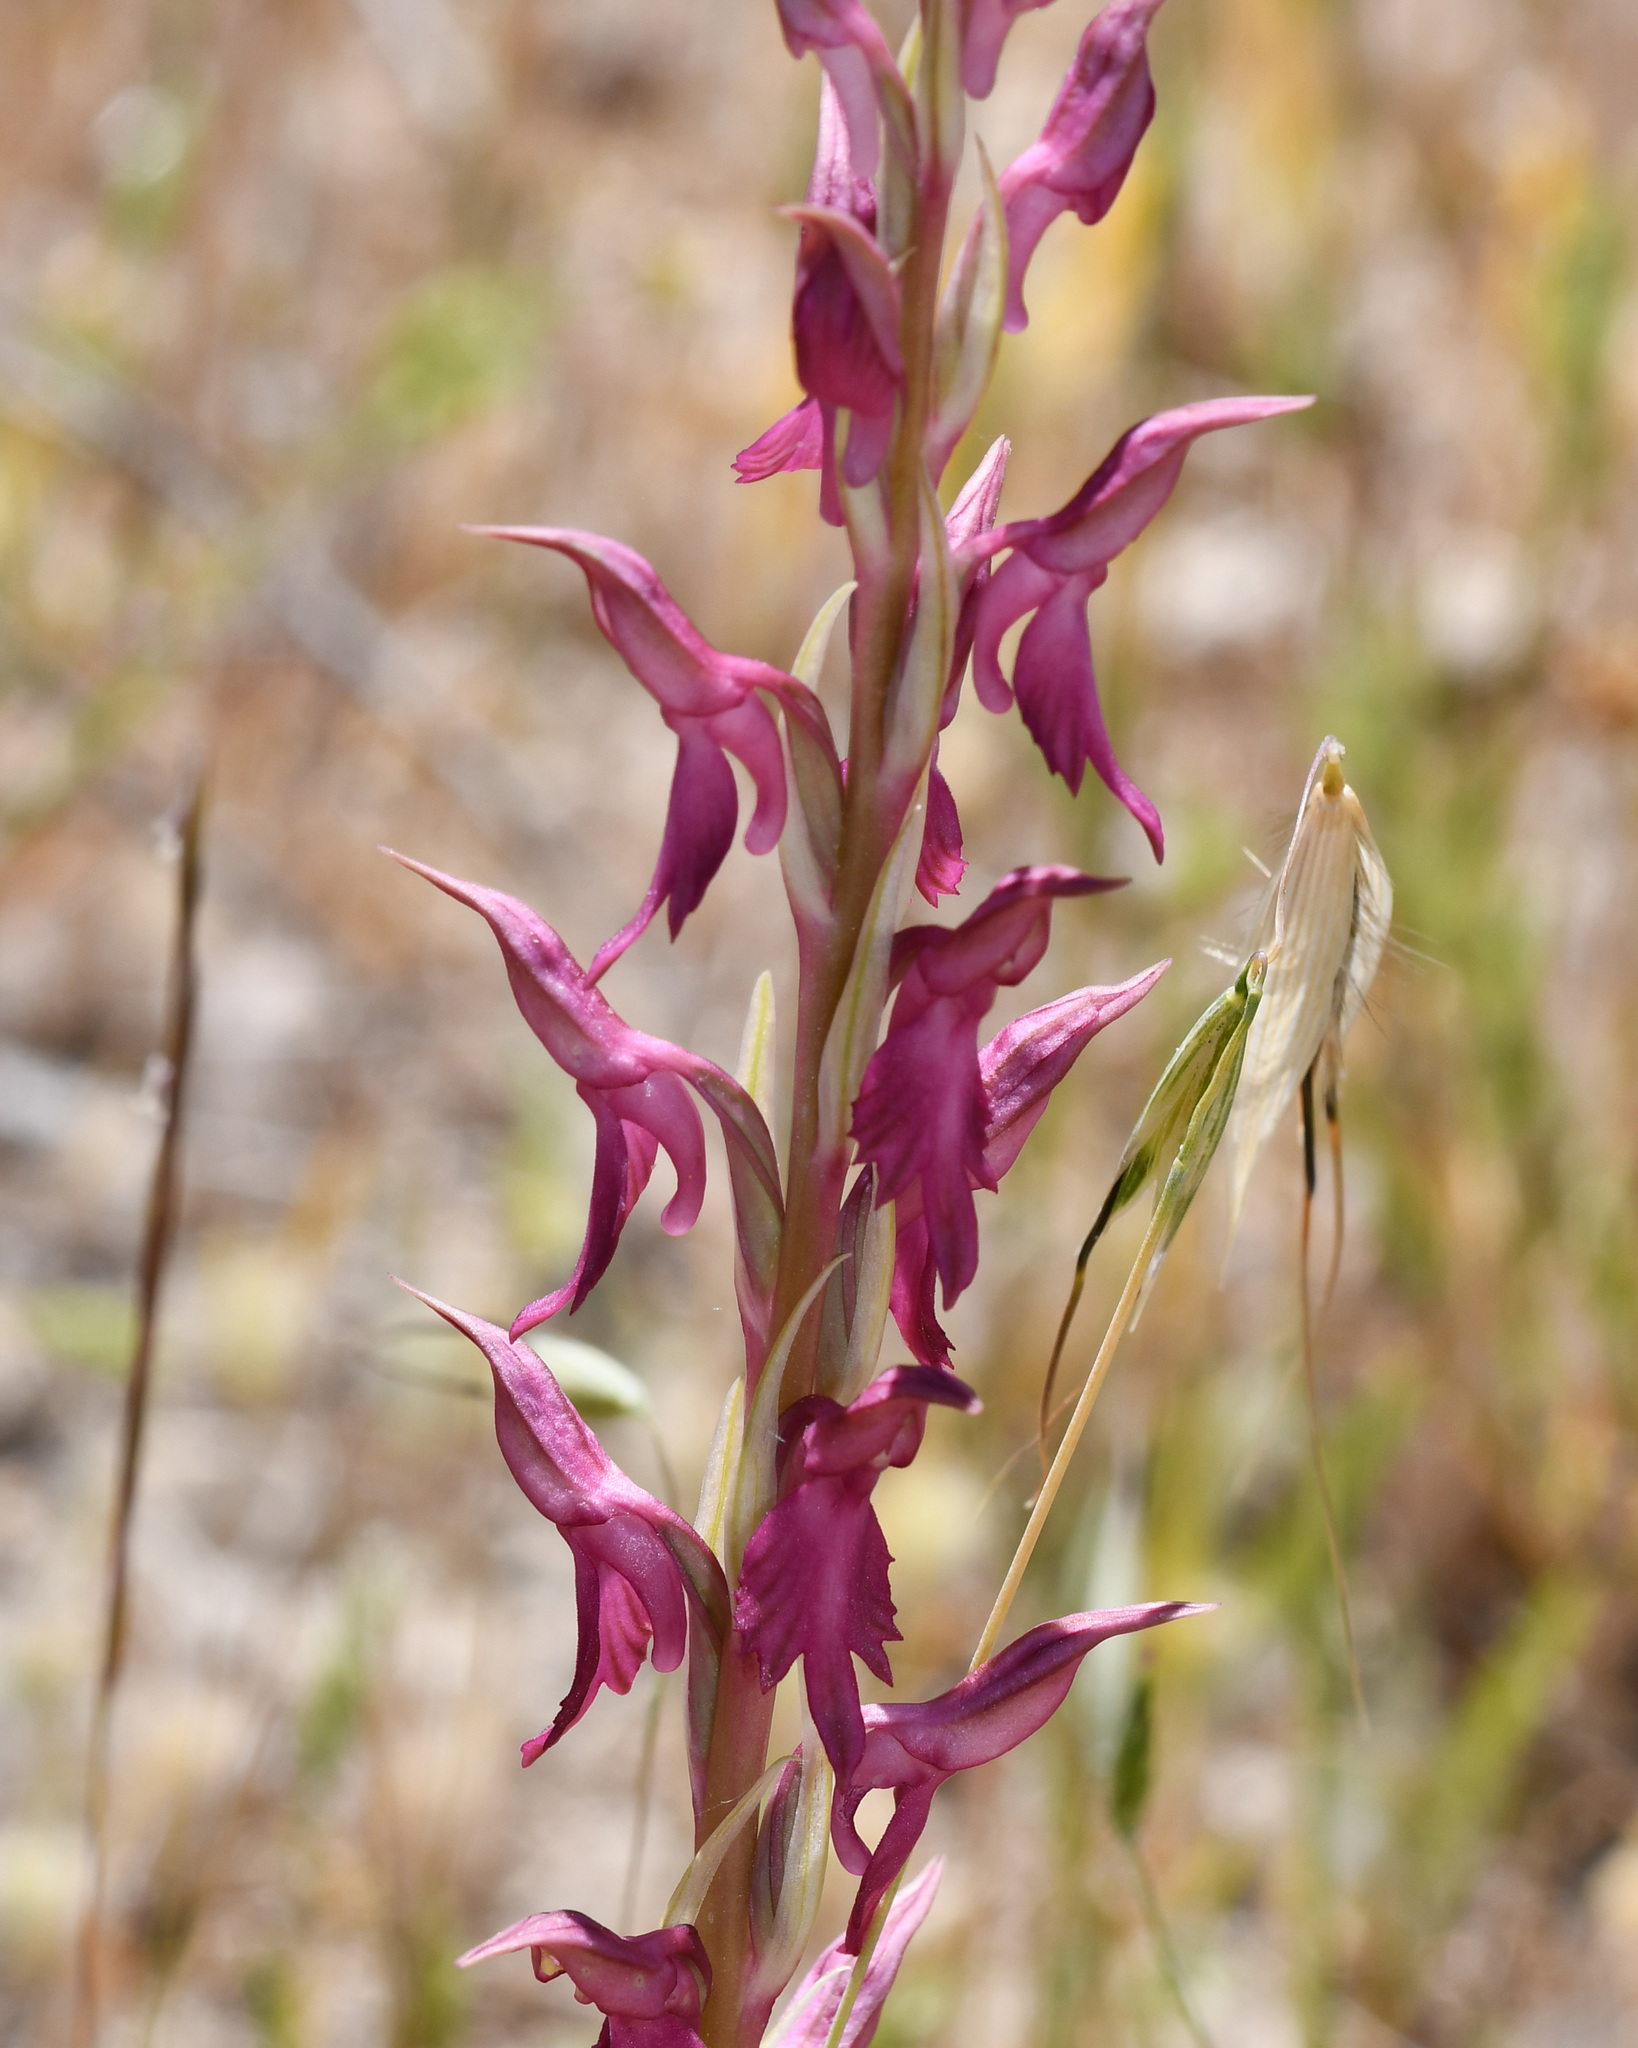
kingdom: Plantae
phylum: Tracheophyta
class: Liliopsida
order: Asparagales
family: Orchidaceae
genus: Anacamptis
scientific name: Anacamptis sancta
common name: Holy orchid
